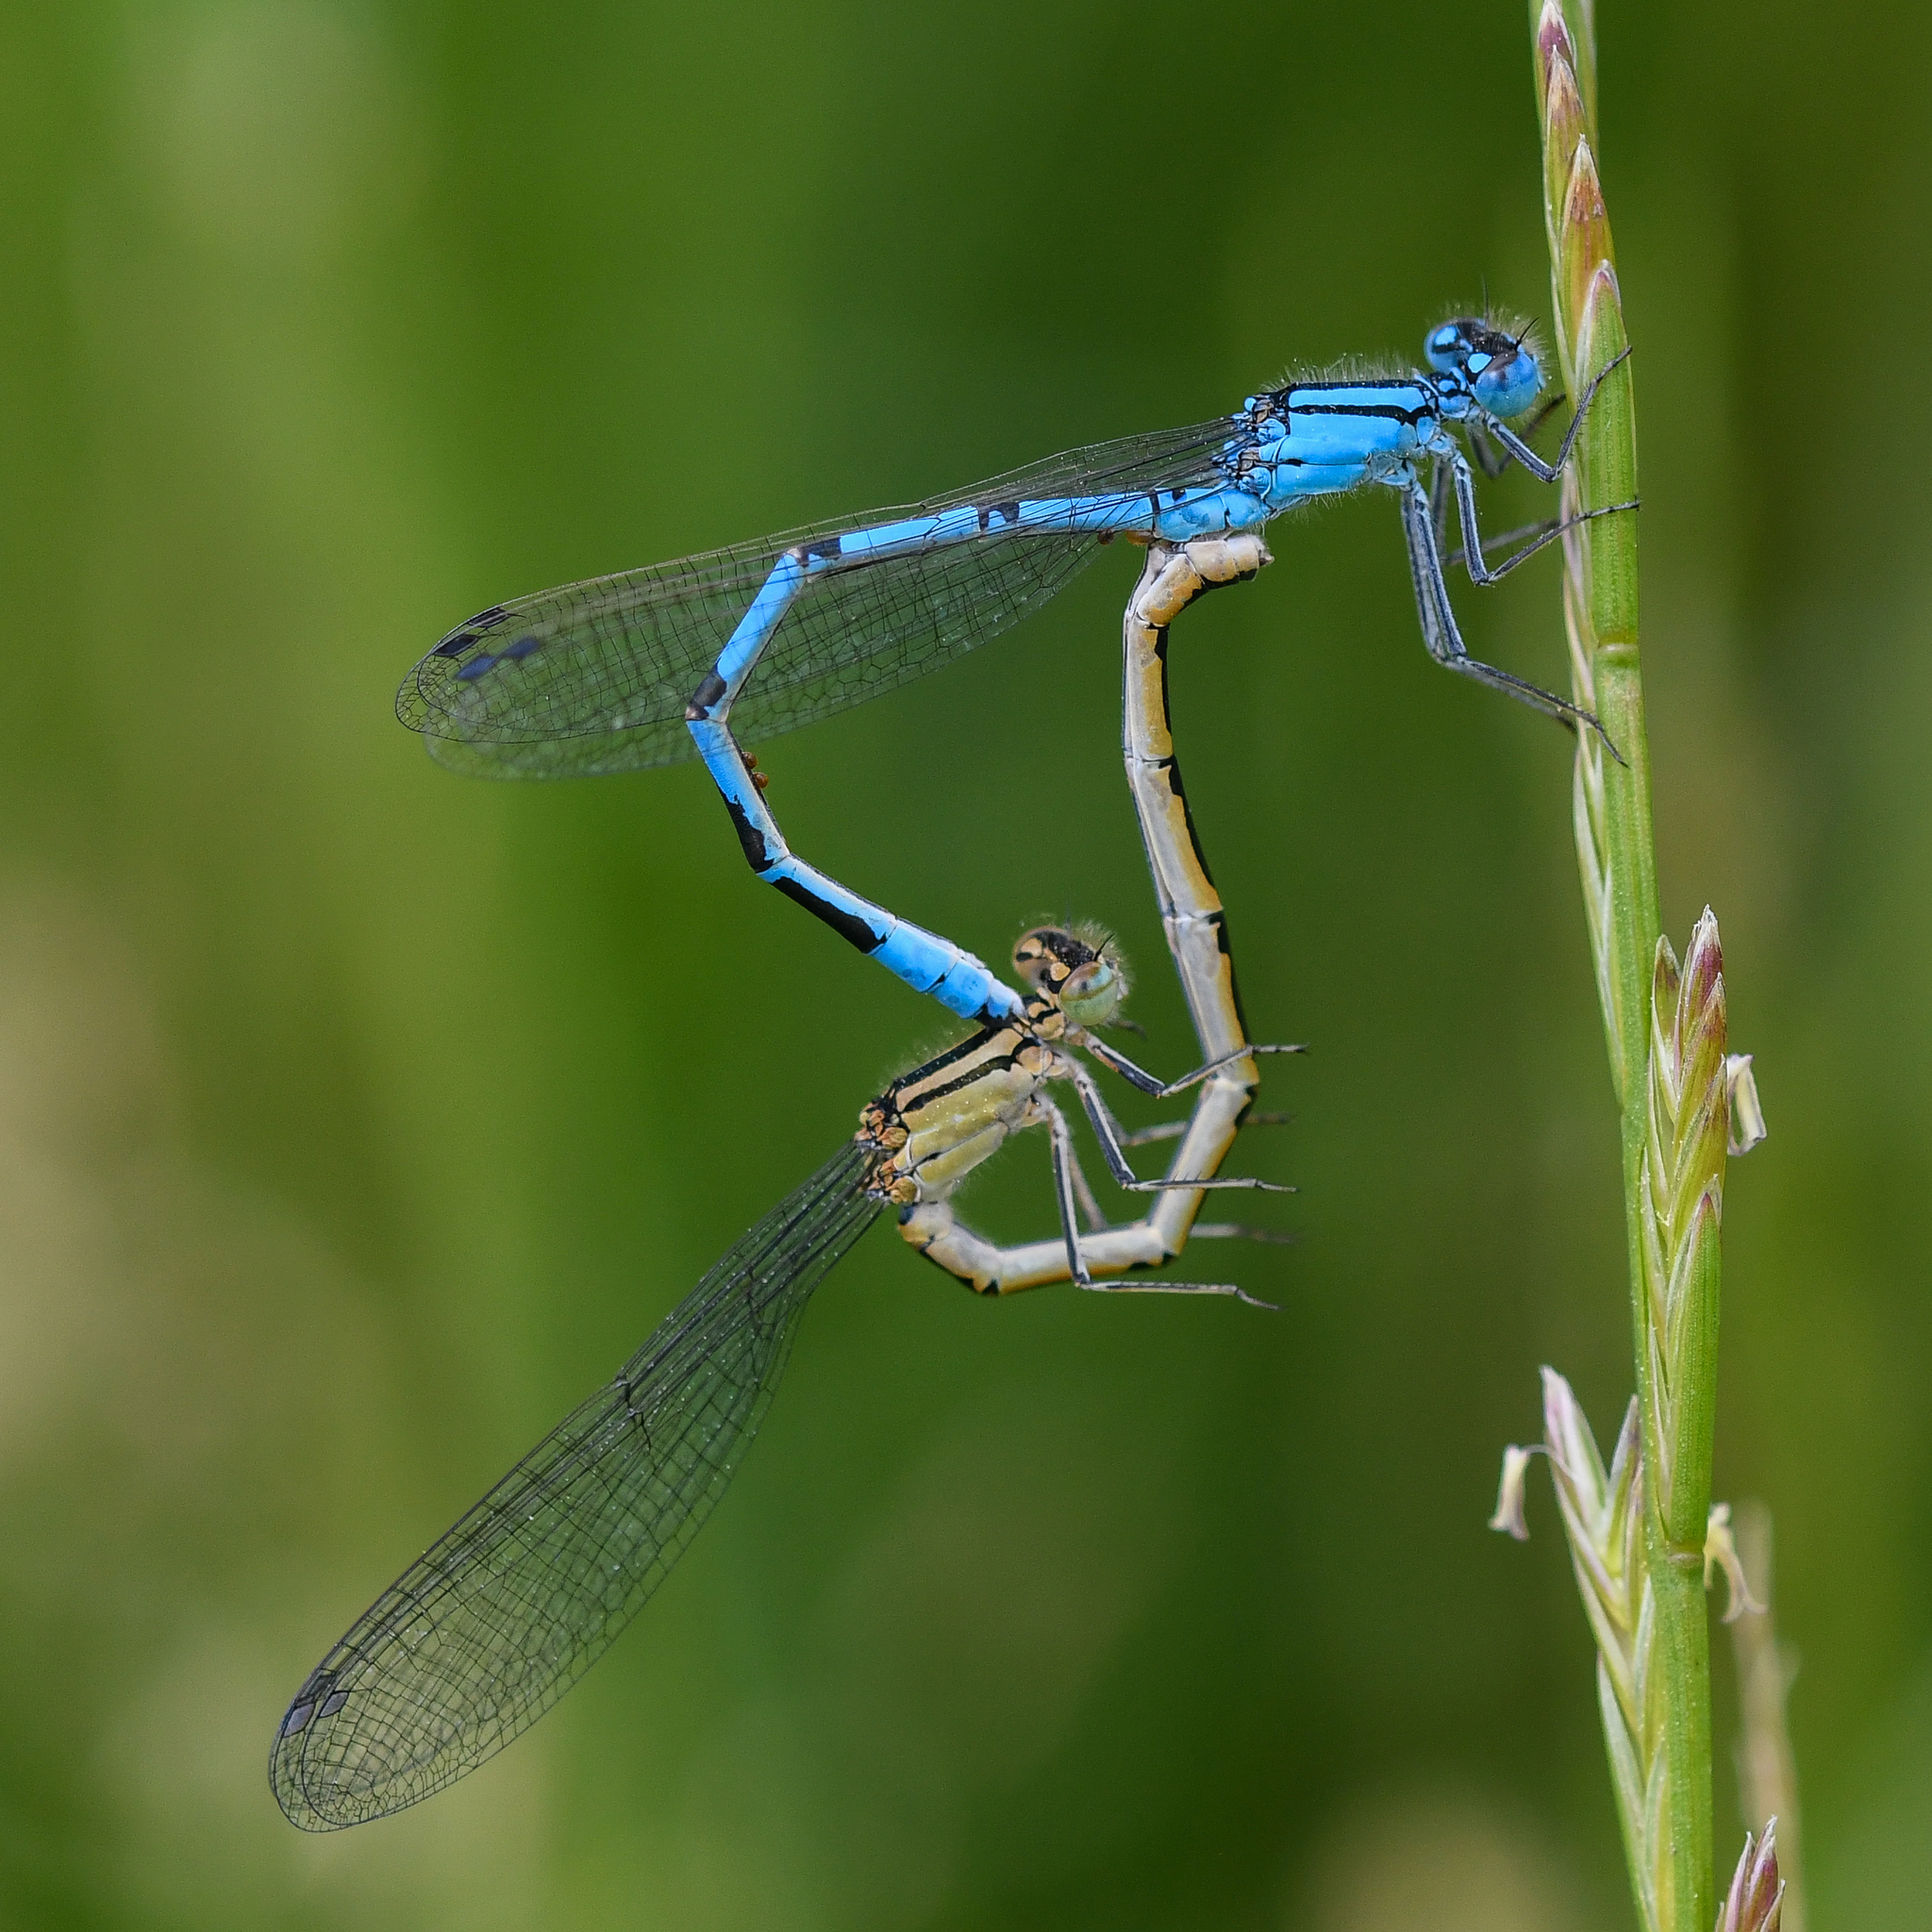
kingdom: Animalia
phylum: Arthropoda
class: Insecta
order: Odonata
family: Coenagrionidae
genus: Enallagma
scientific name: Enallagma cyathigerum
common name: Common blue damselfly
